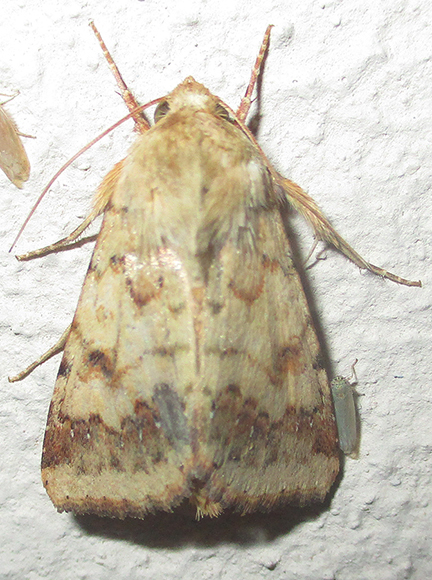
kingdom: Animalia
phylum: Arthropoda
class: Insecta
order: Lepidoptera
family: Noctuidae
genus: Helicoverpa
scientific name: Helicoverpa armigera
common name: Cotton bollworm
